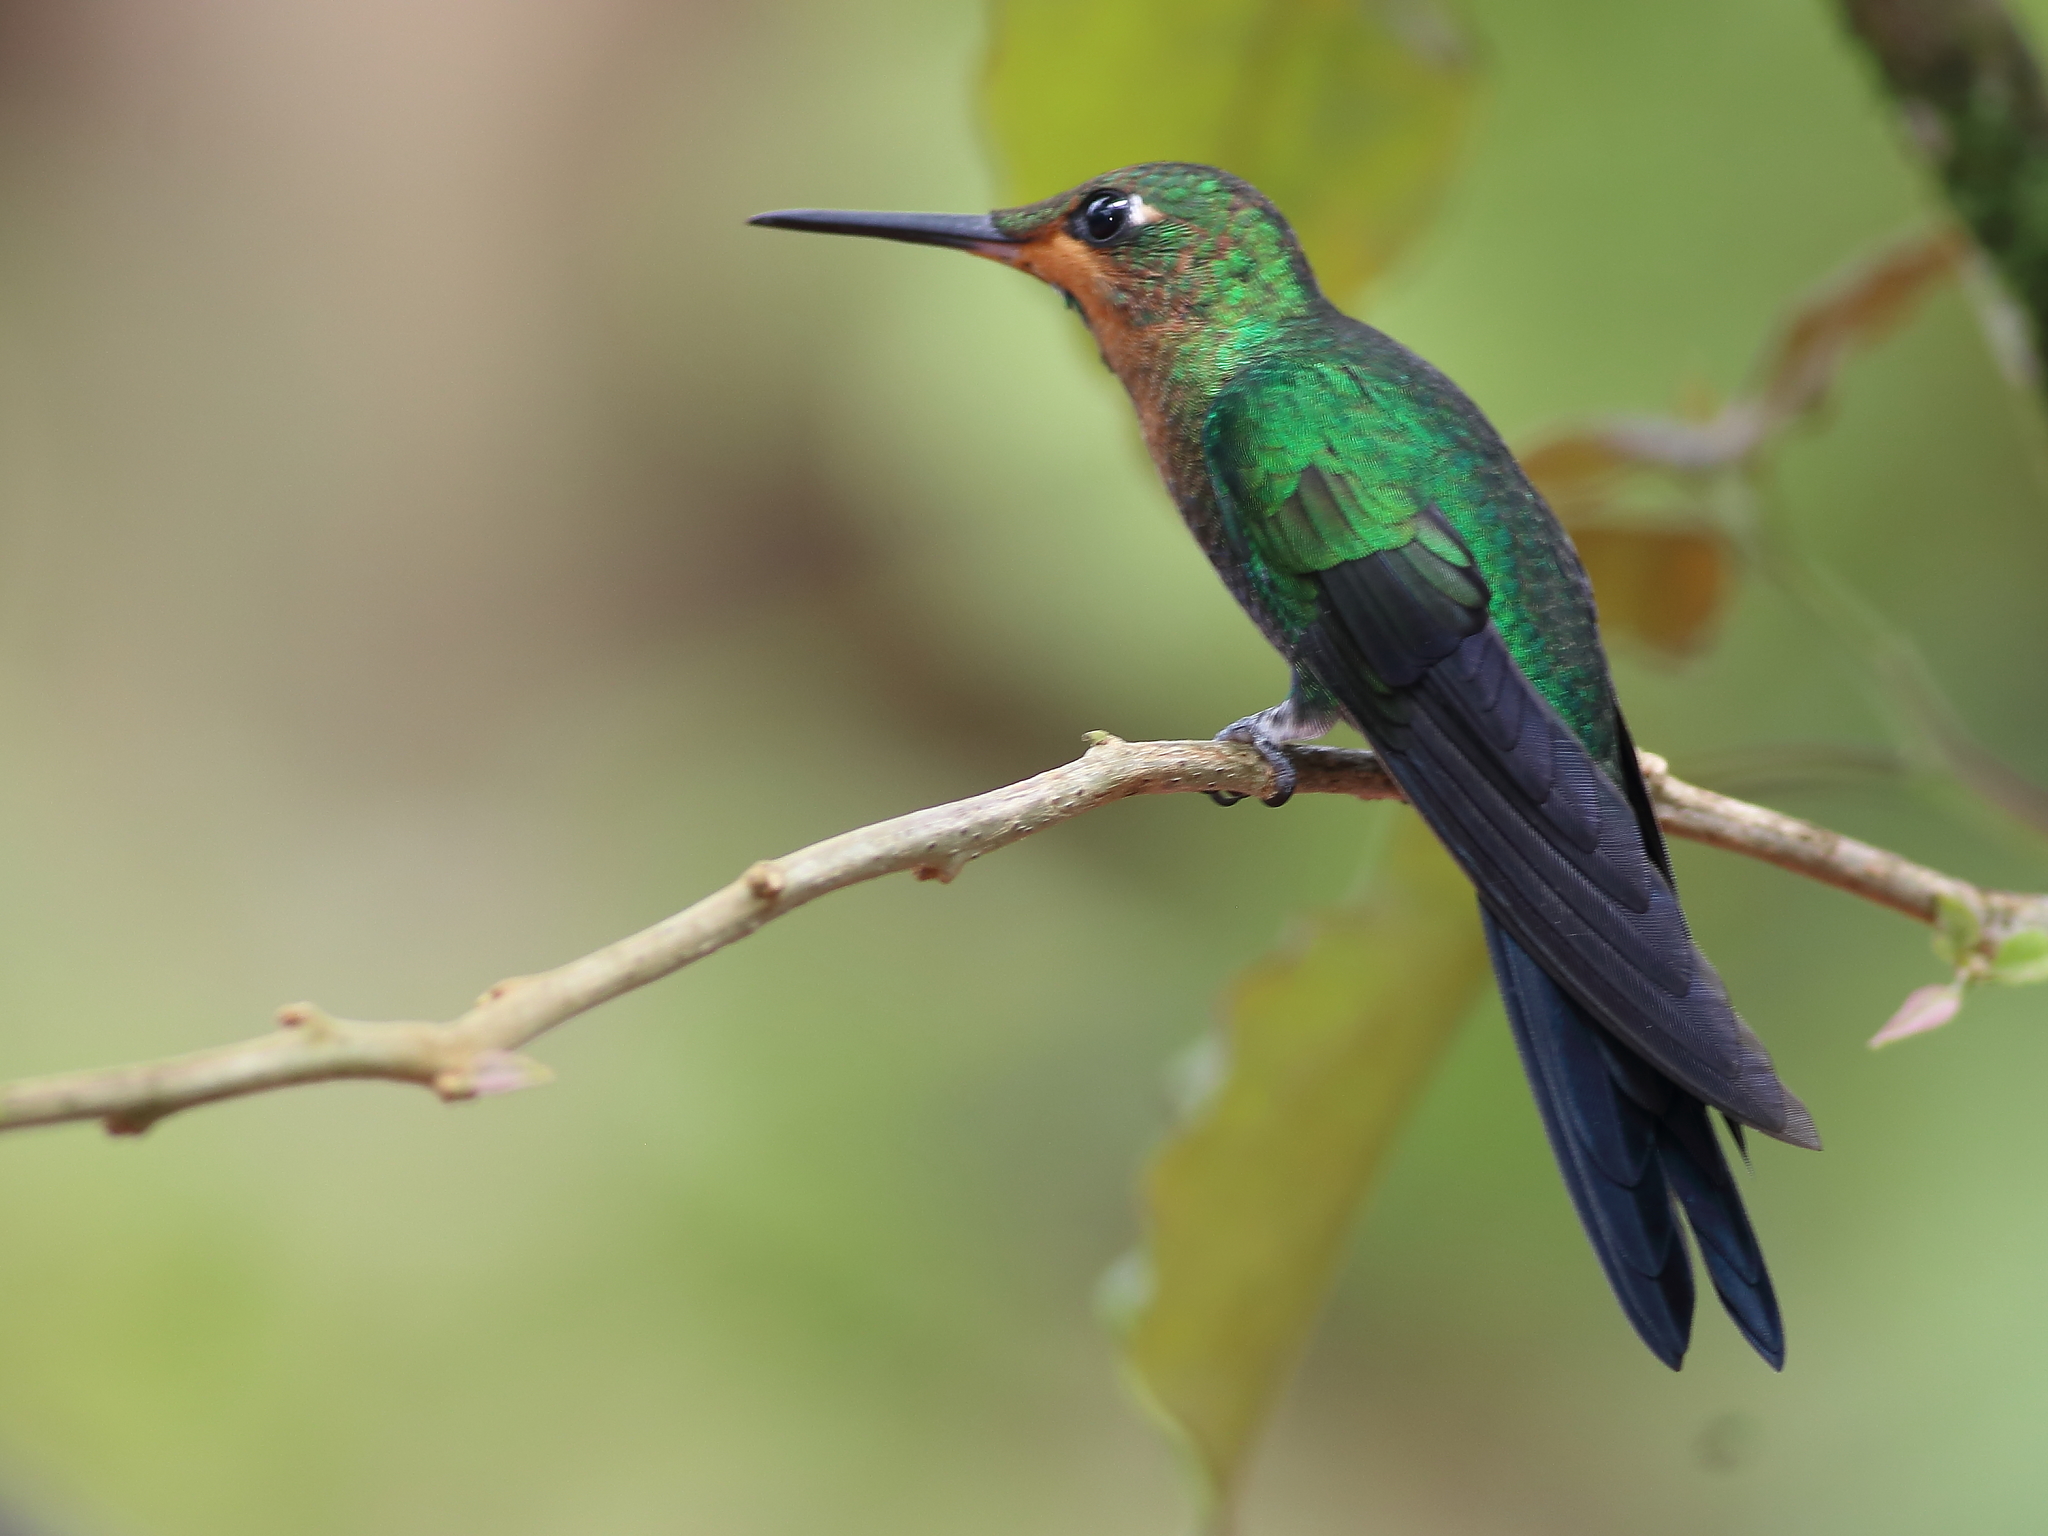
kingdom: Animalia
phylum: Chordata
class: Aves
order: Apodiformes
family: Trochilidae
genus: Heliodoxa
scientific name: Heliodoxa jacula
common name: Green-crowned brilliant
